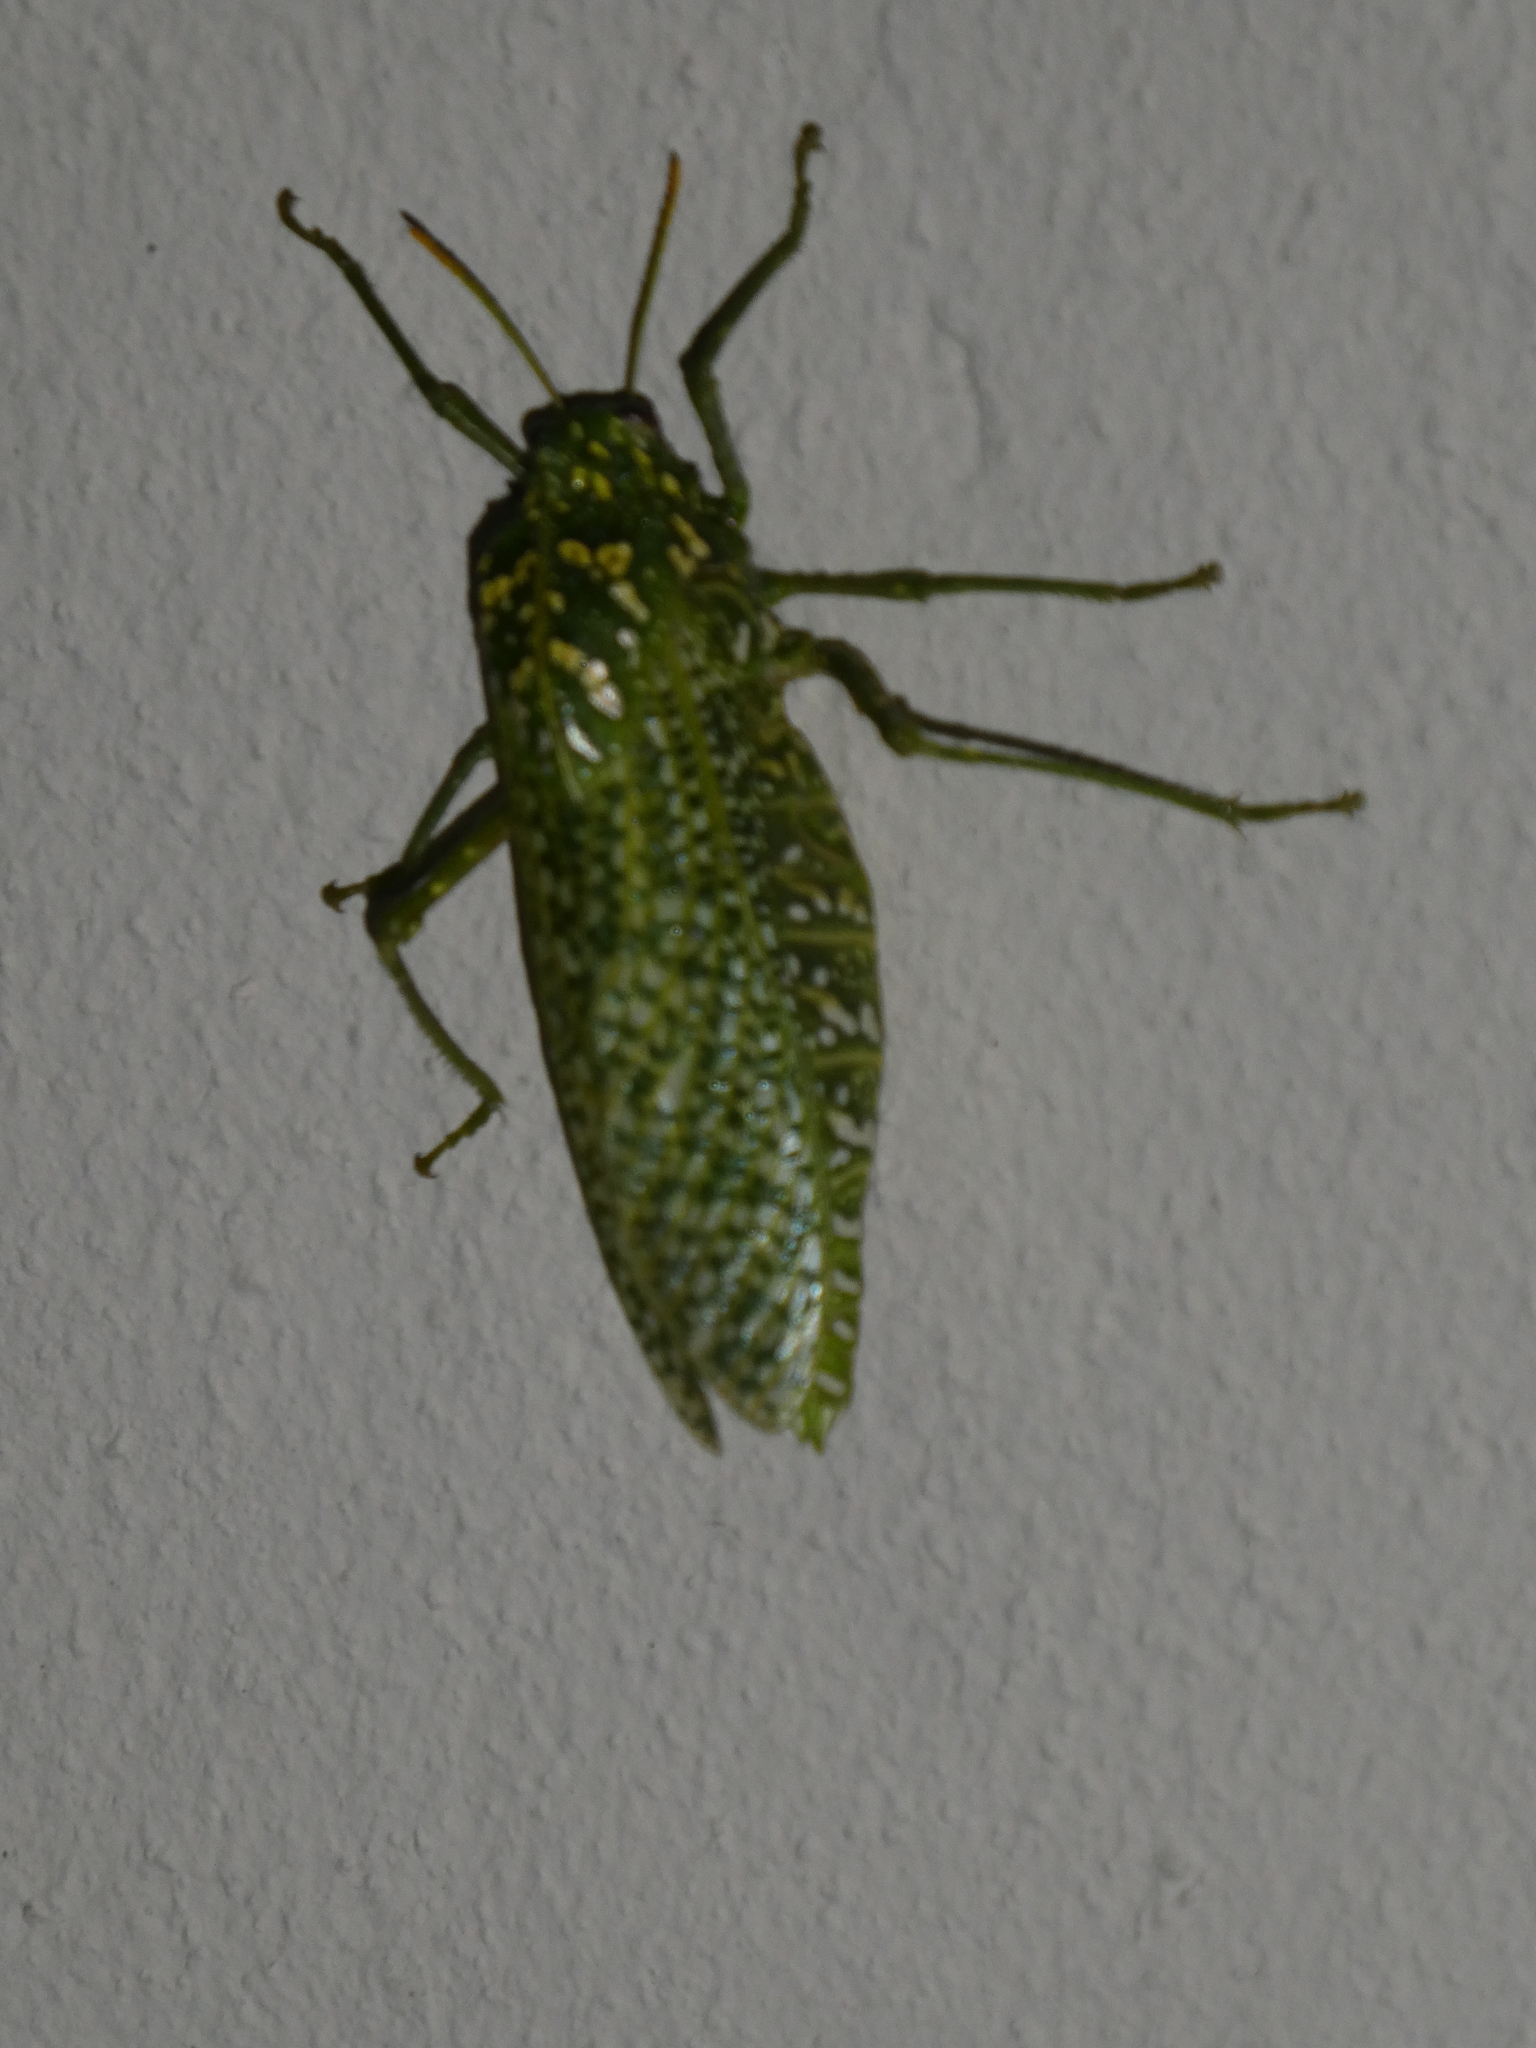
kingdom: Animalia
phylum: Arthropoda
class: Insecta
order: Orthoptera
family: Pneumoridae
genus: Physemacris
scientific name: Physemacris variolosa
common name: Silver spotted bladder grasshopper
